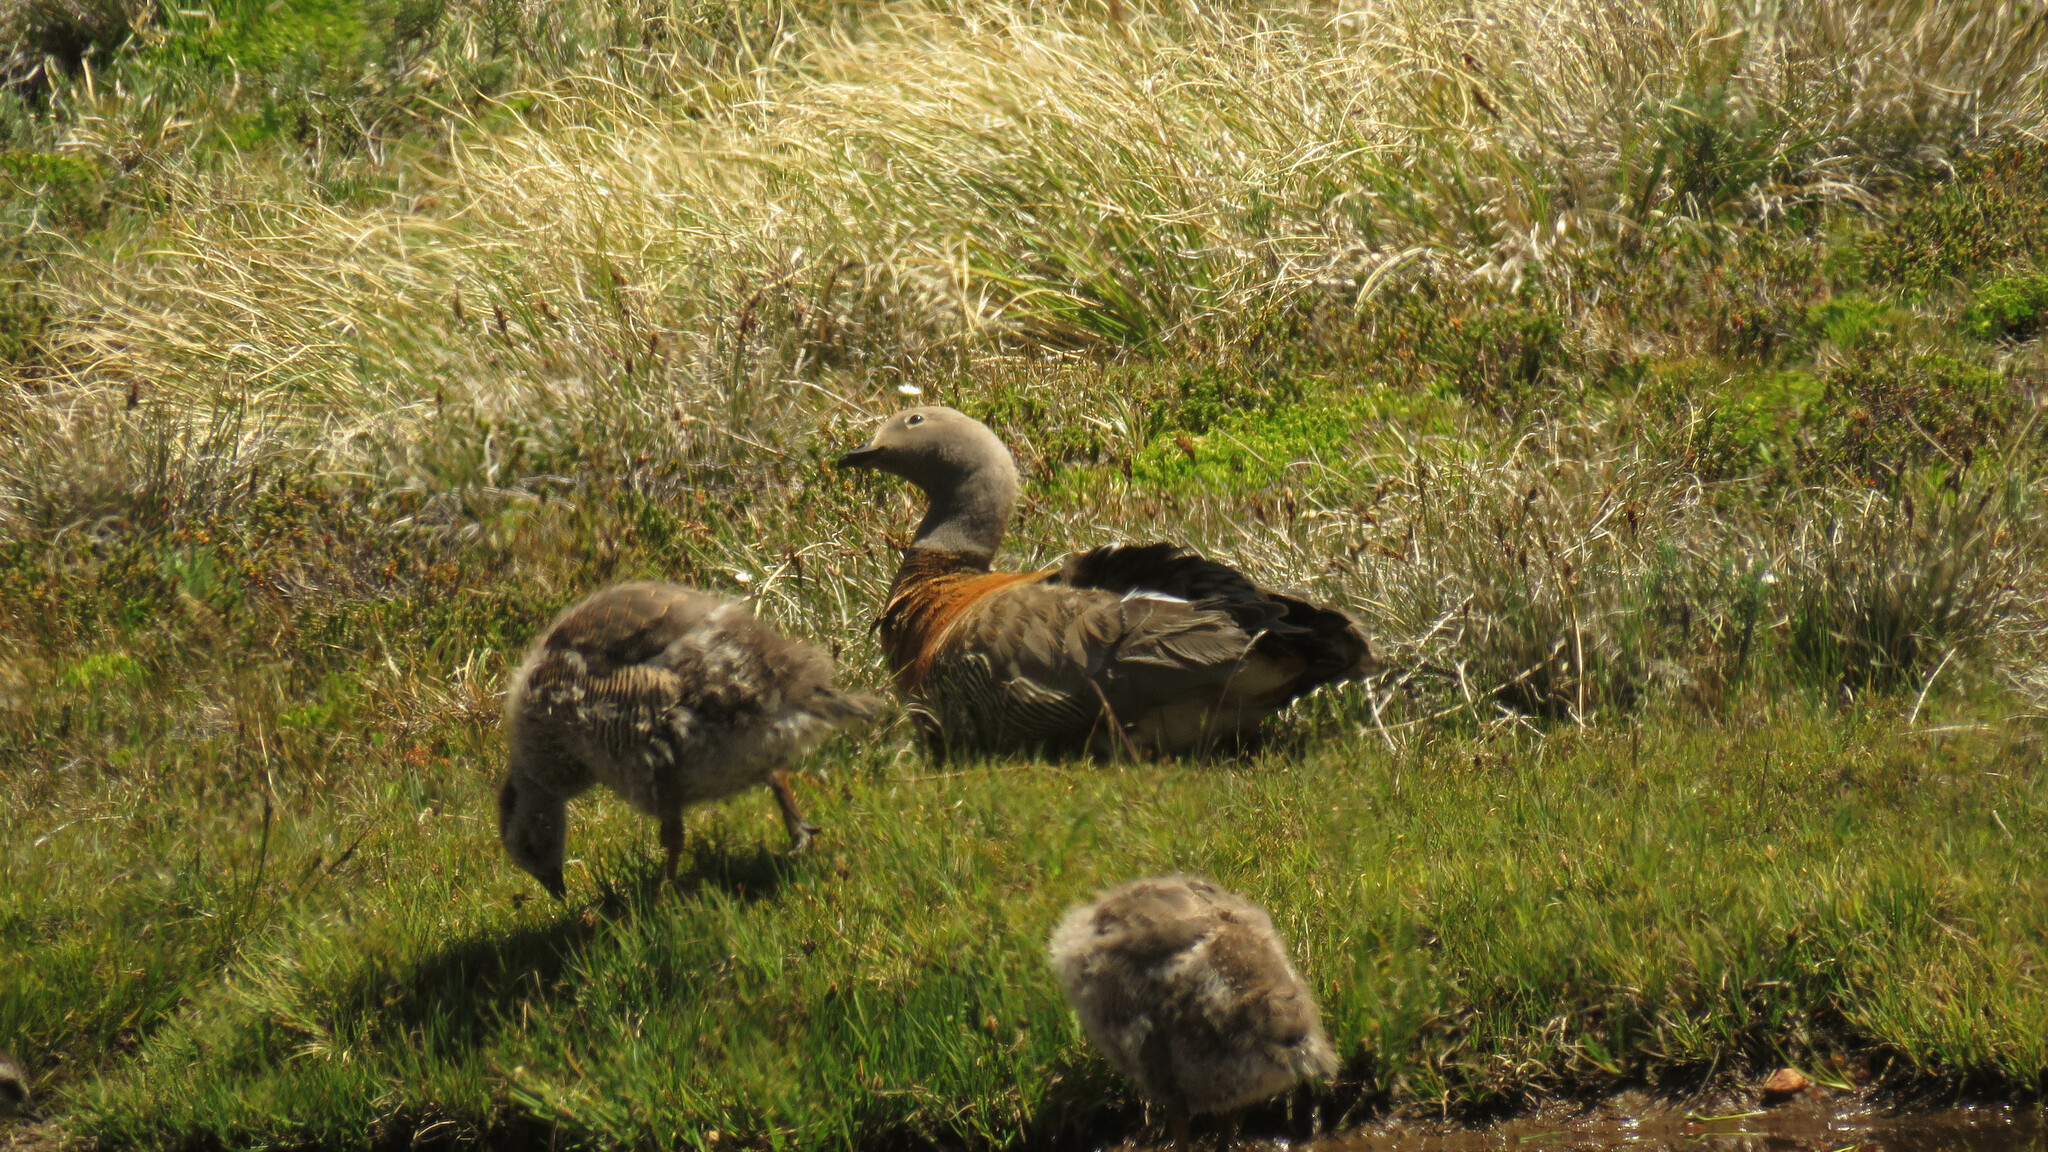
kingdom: Animalia
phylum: Chordata
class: Aves
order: Anseriformes
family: Anatidae
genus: Chloephaga
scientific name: Chloephaga poliocephala
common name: Ashy-headed goose
